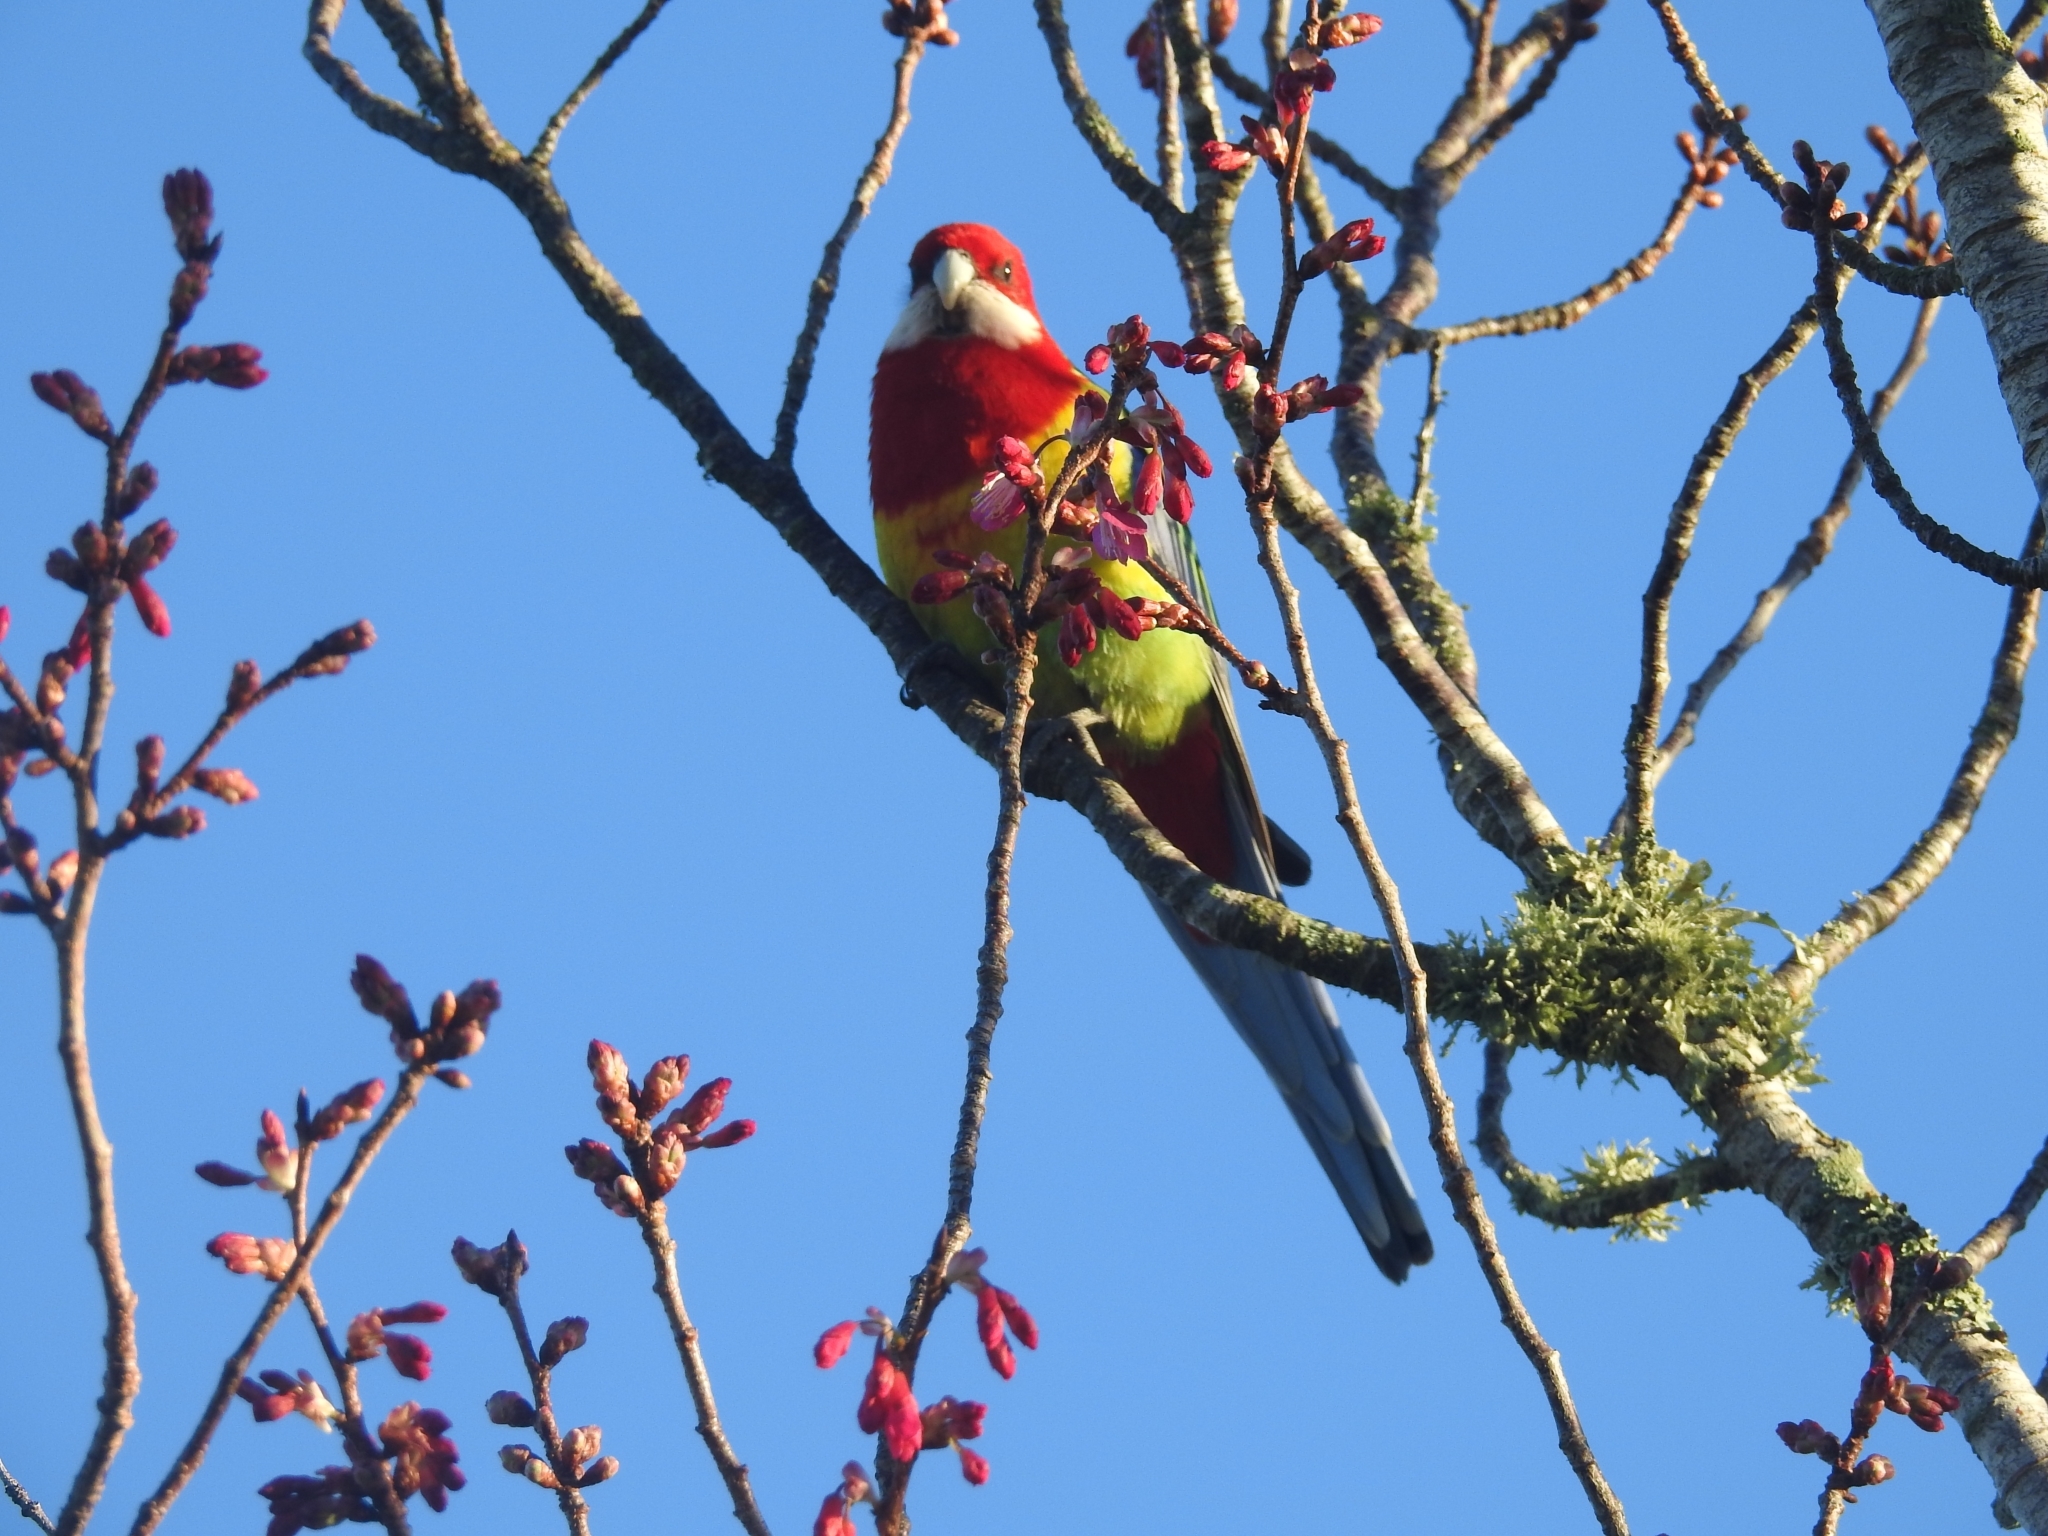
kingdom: Animalia
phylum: Chordata
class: Aves
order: Psittaciformes
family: Psittacidae
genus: Platycercus
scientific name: Platycercus eximius
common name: Eastern rosella
